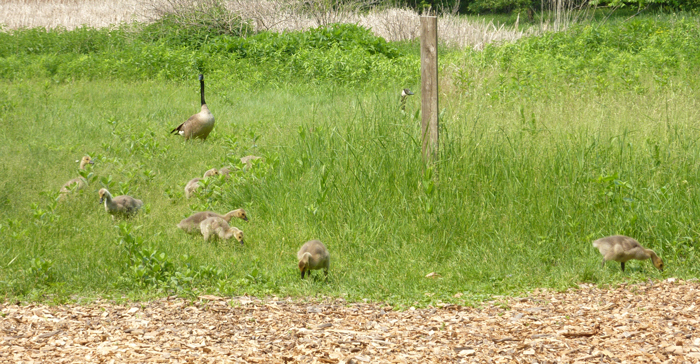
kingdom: Animalia
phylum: Chordata
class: Aves
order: Anseriformes
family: Anatidae
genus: Branta
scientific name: Branta canadensis
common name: Canada goose
